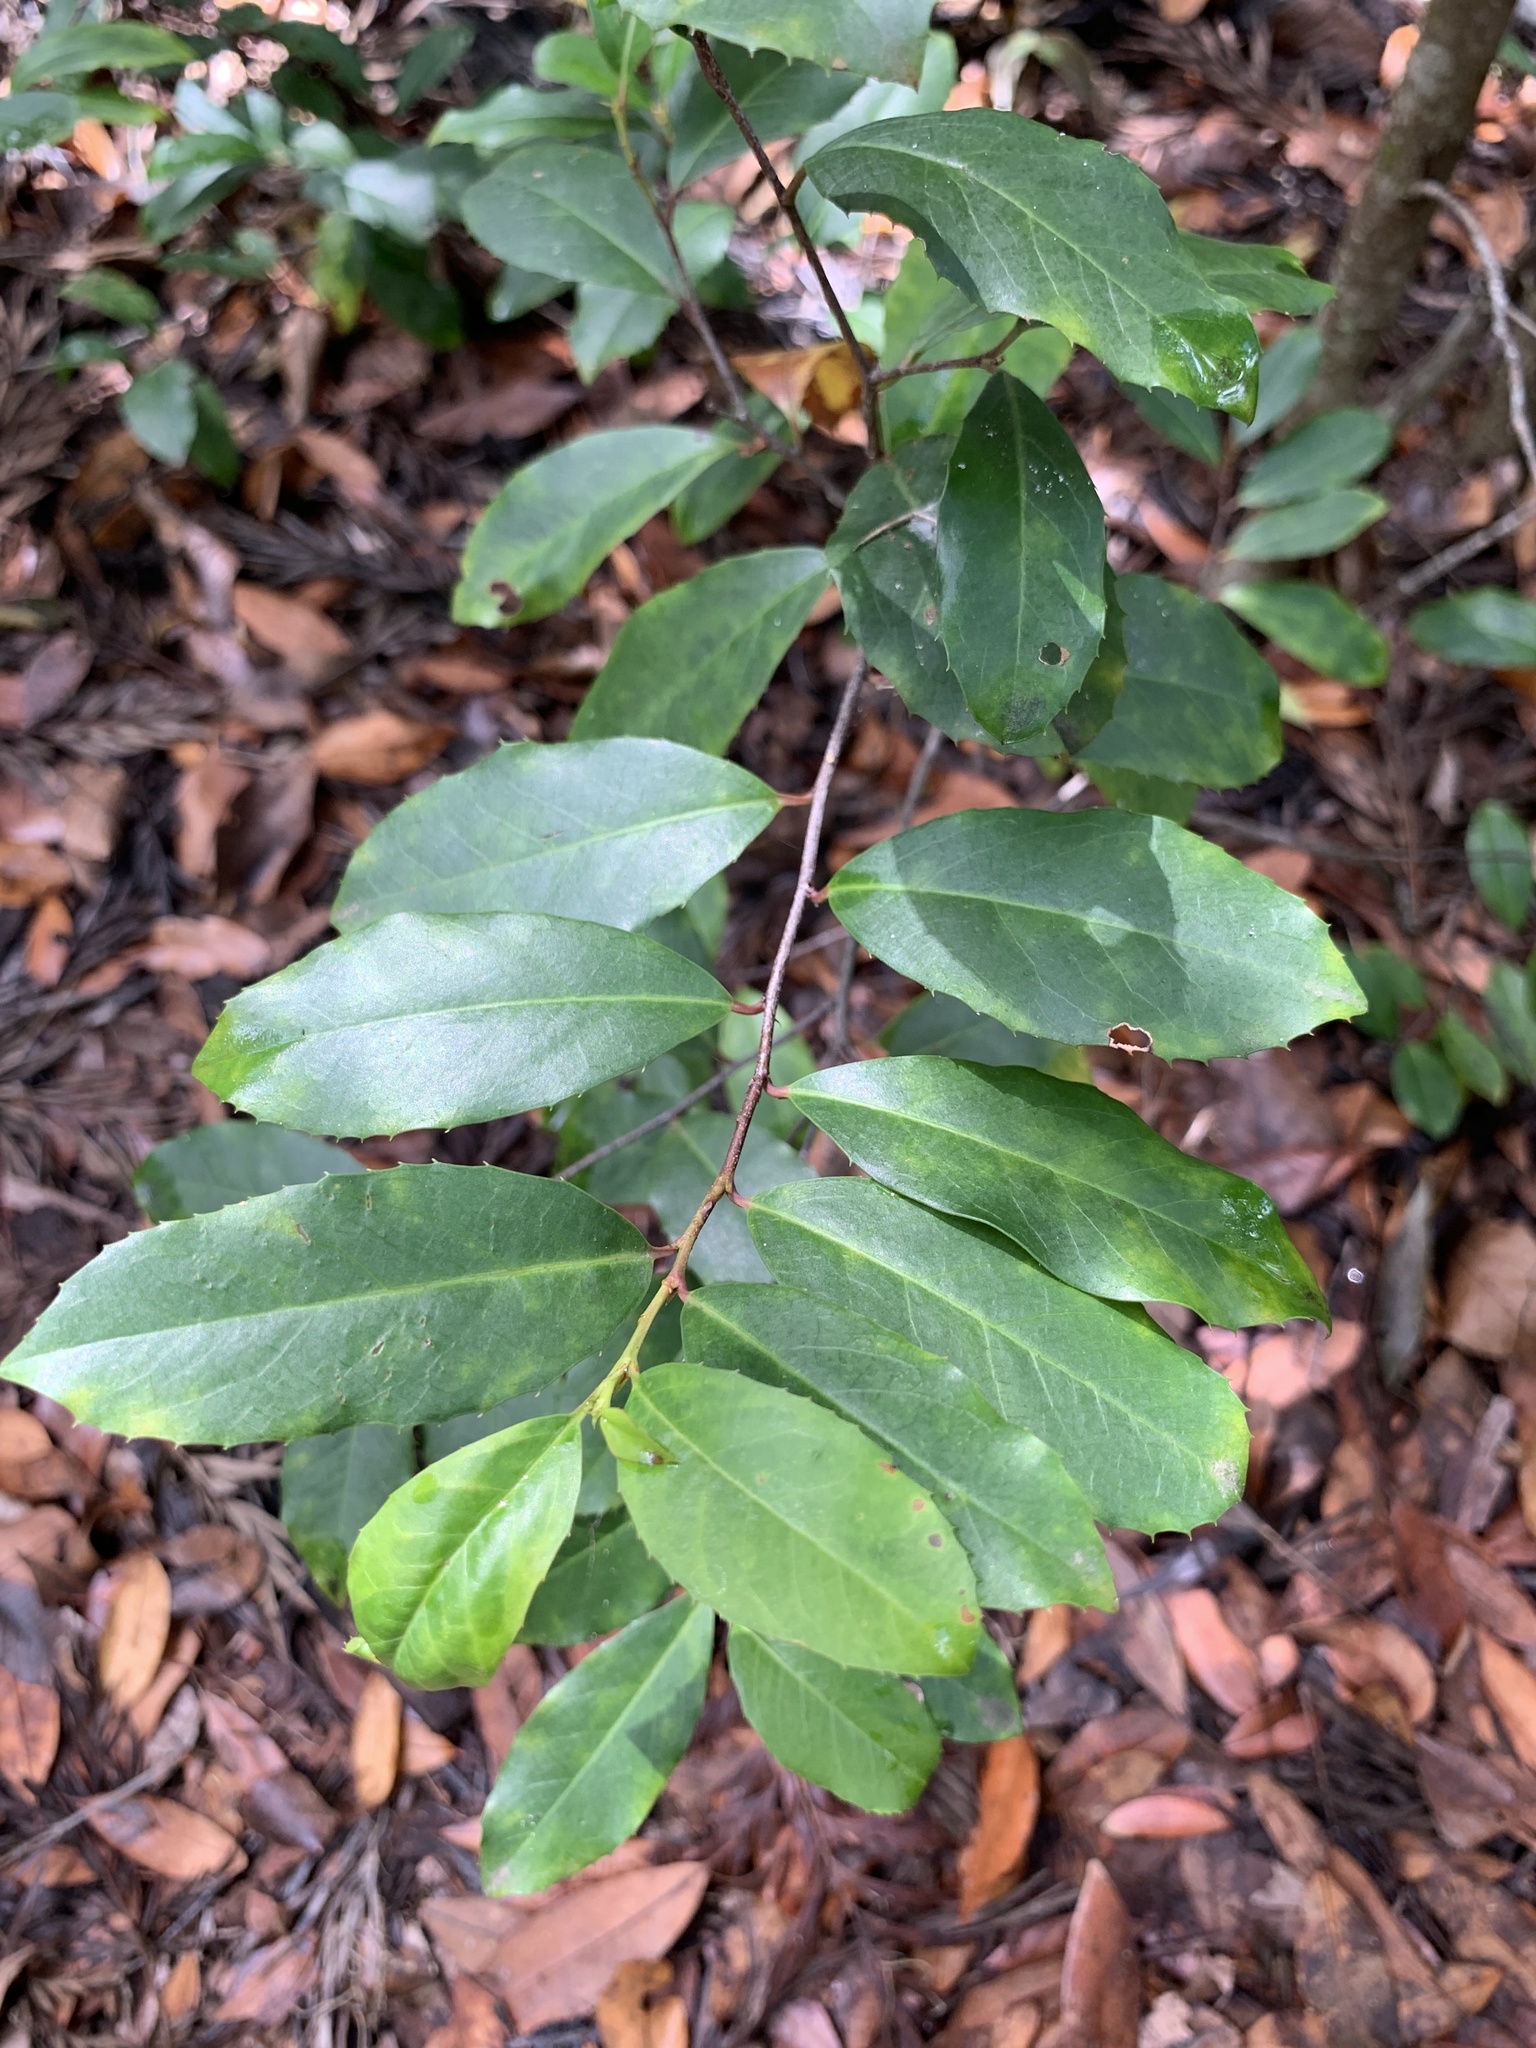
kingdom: Plantae
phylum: Tracheophyta
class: Magnoliopsida
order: Rosales
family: Rosaceae
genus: Prunus
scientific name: Prunus caroliniana
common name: Carolina laurel cherry
